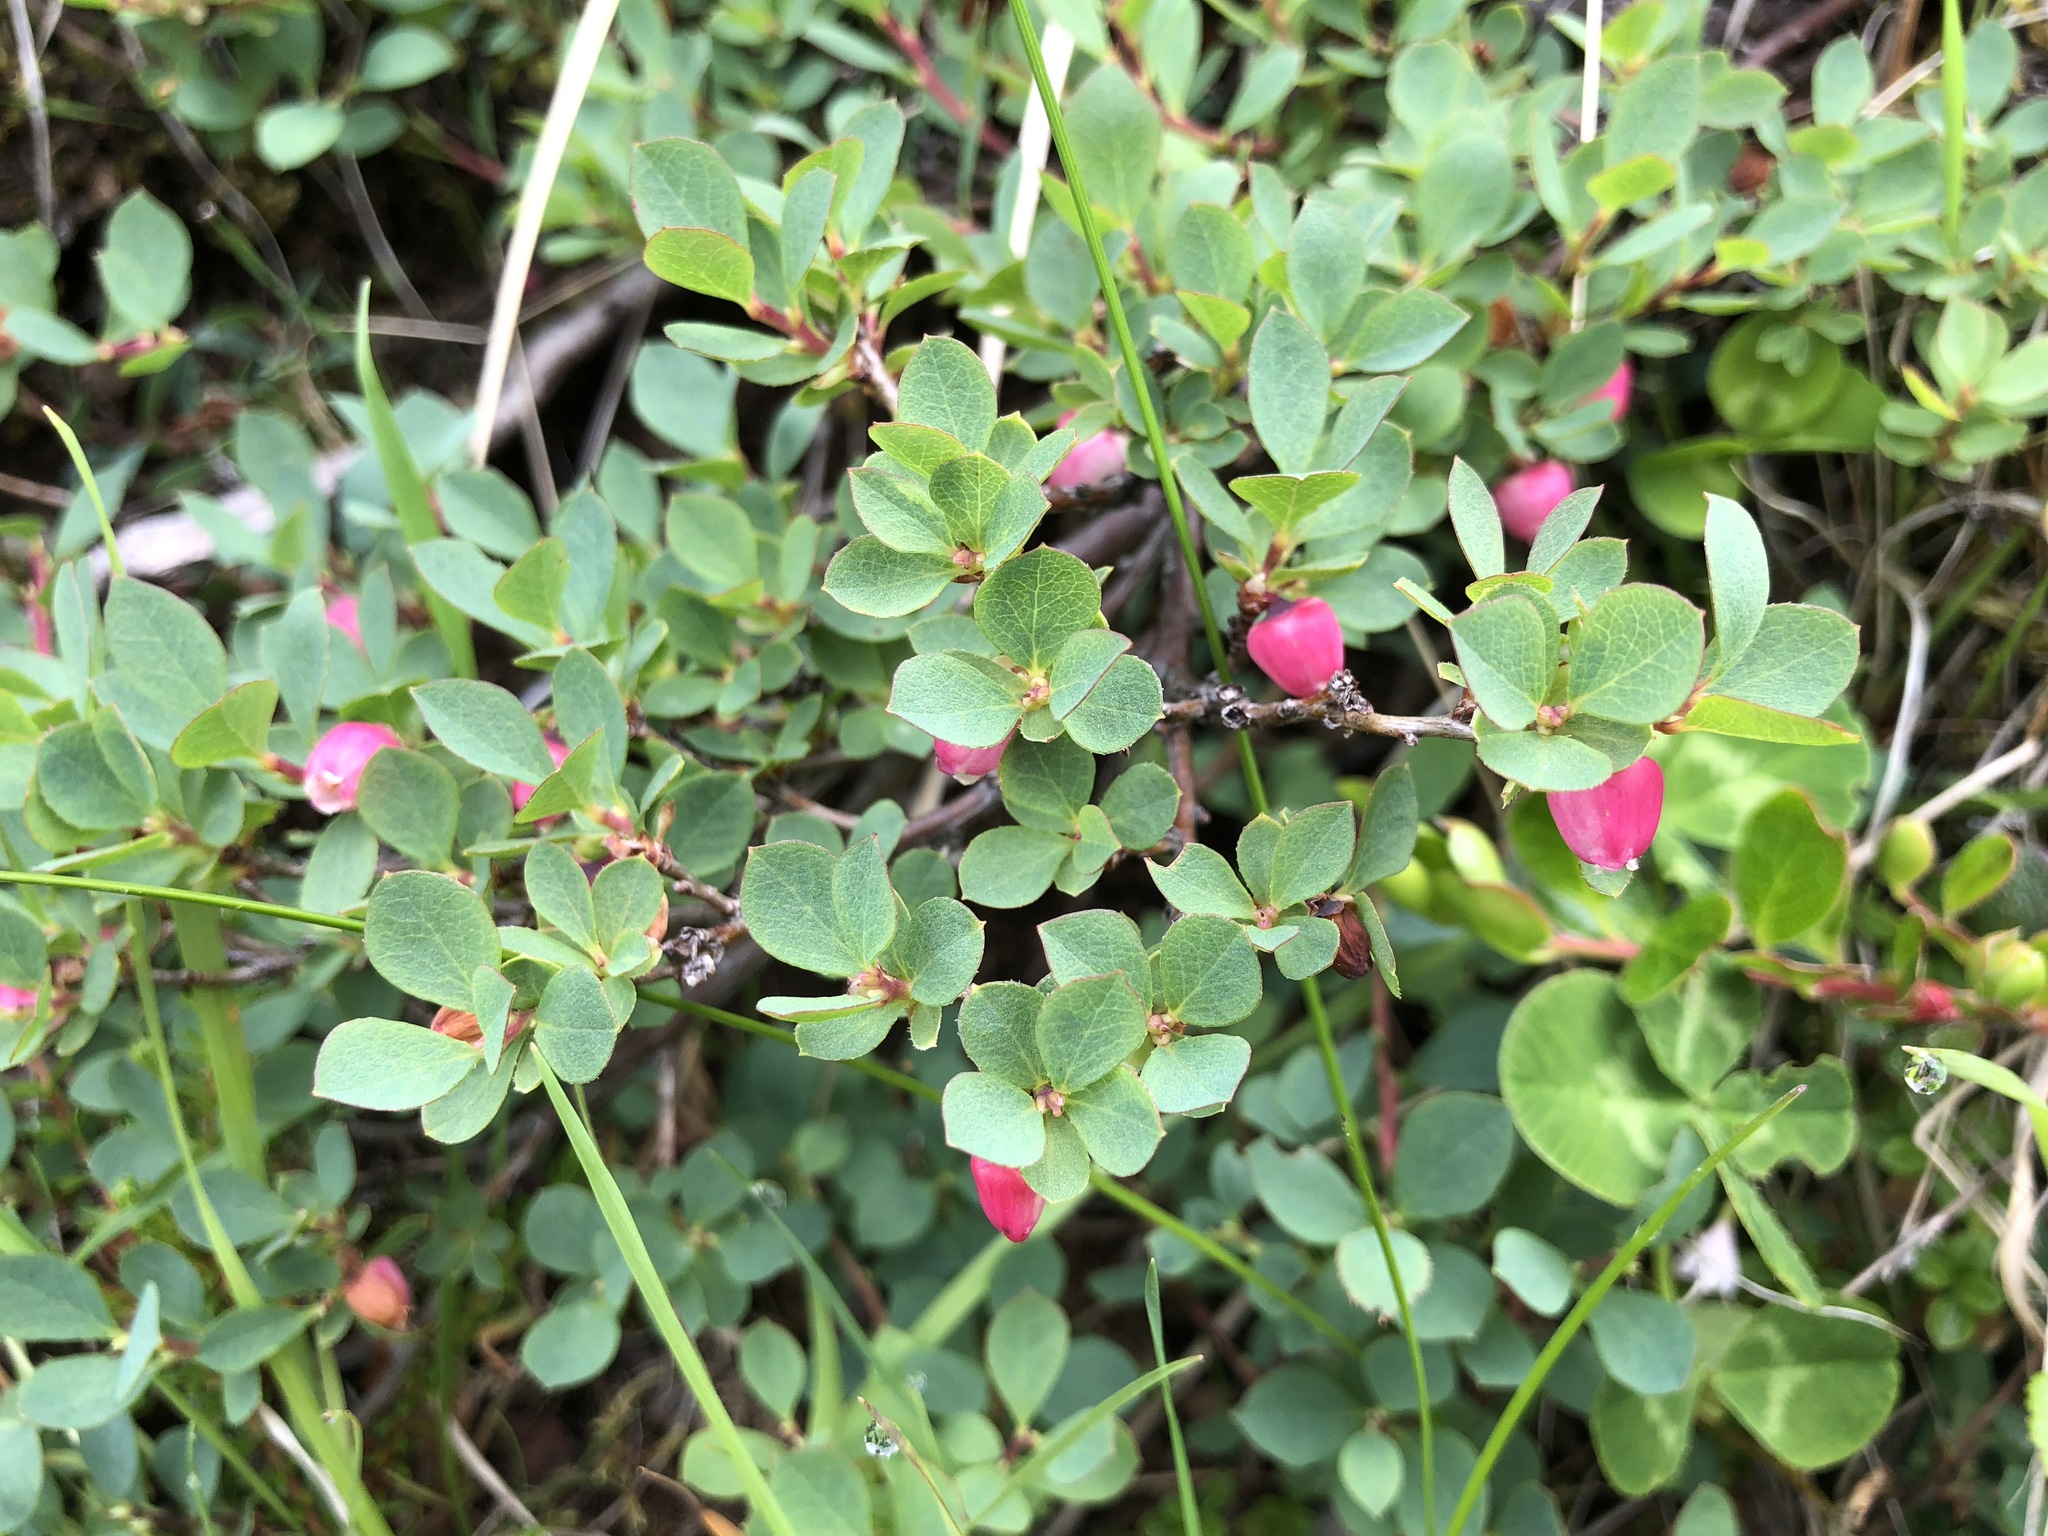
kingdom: Plantae
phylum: Tracheophyta
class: Magnoliopsida
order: Ericales
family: Ericaceae
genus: Vaccinium
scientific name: Vaccinium uliginosum
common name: Bog bilberry
